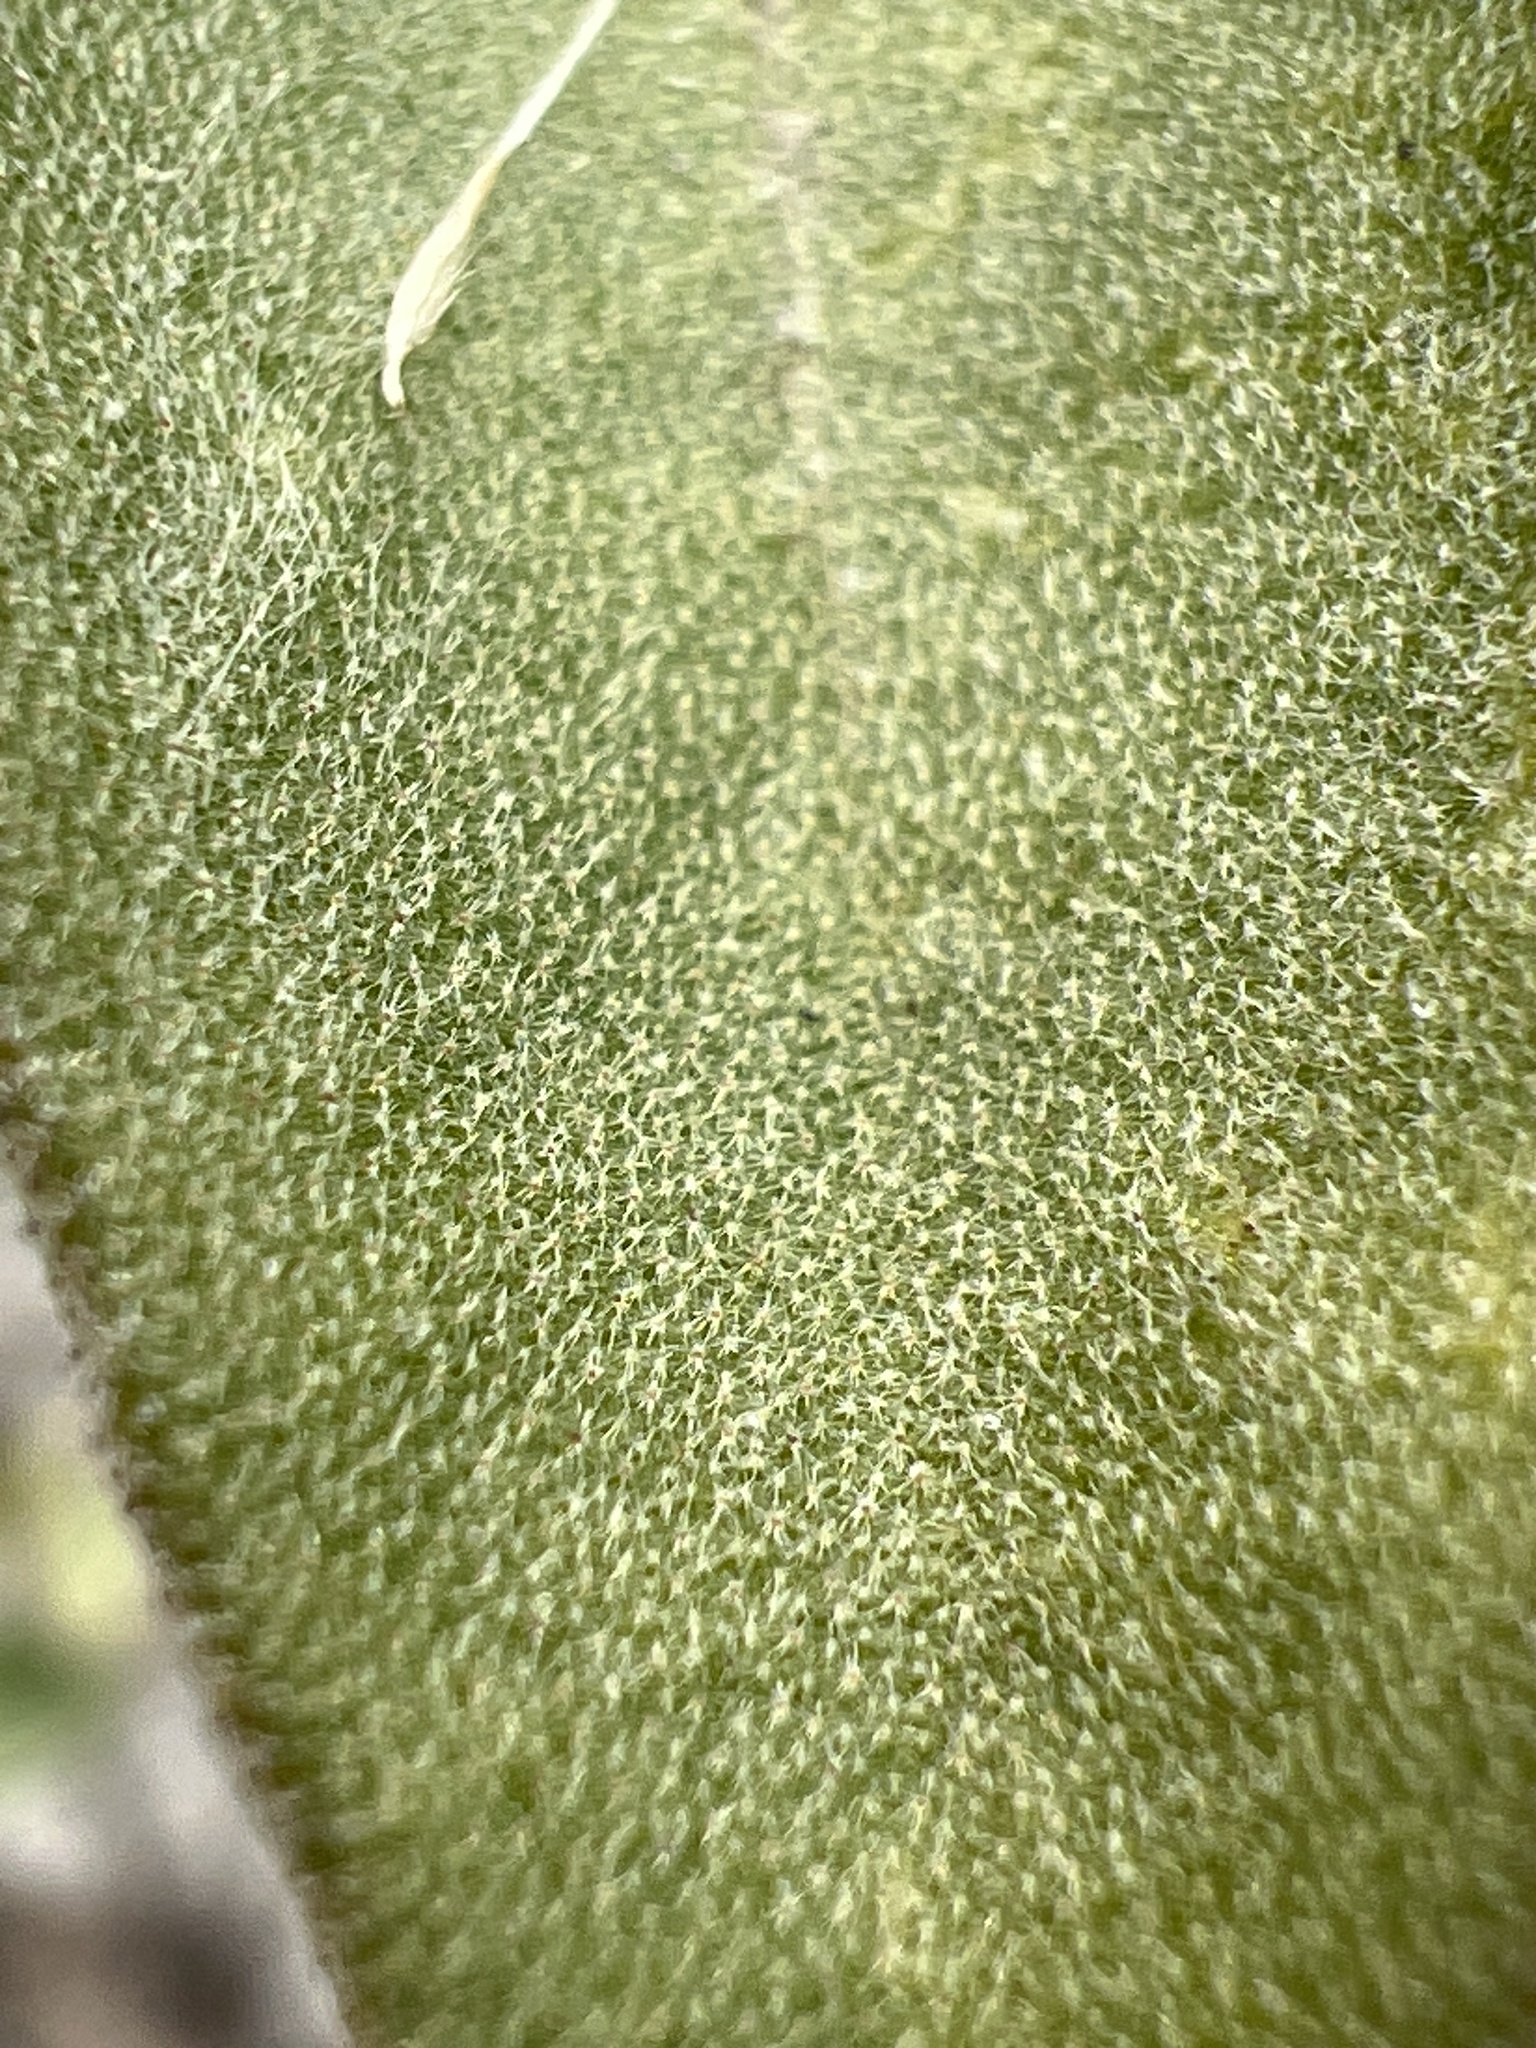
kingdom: Plantae
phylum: Tracheophyta
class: Magnoliopsida
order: Malpighiales
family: Euphorbiaceae
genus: Croton
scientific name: Croton punctatus
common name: Beach-tea
